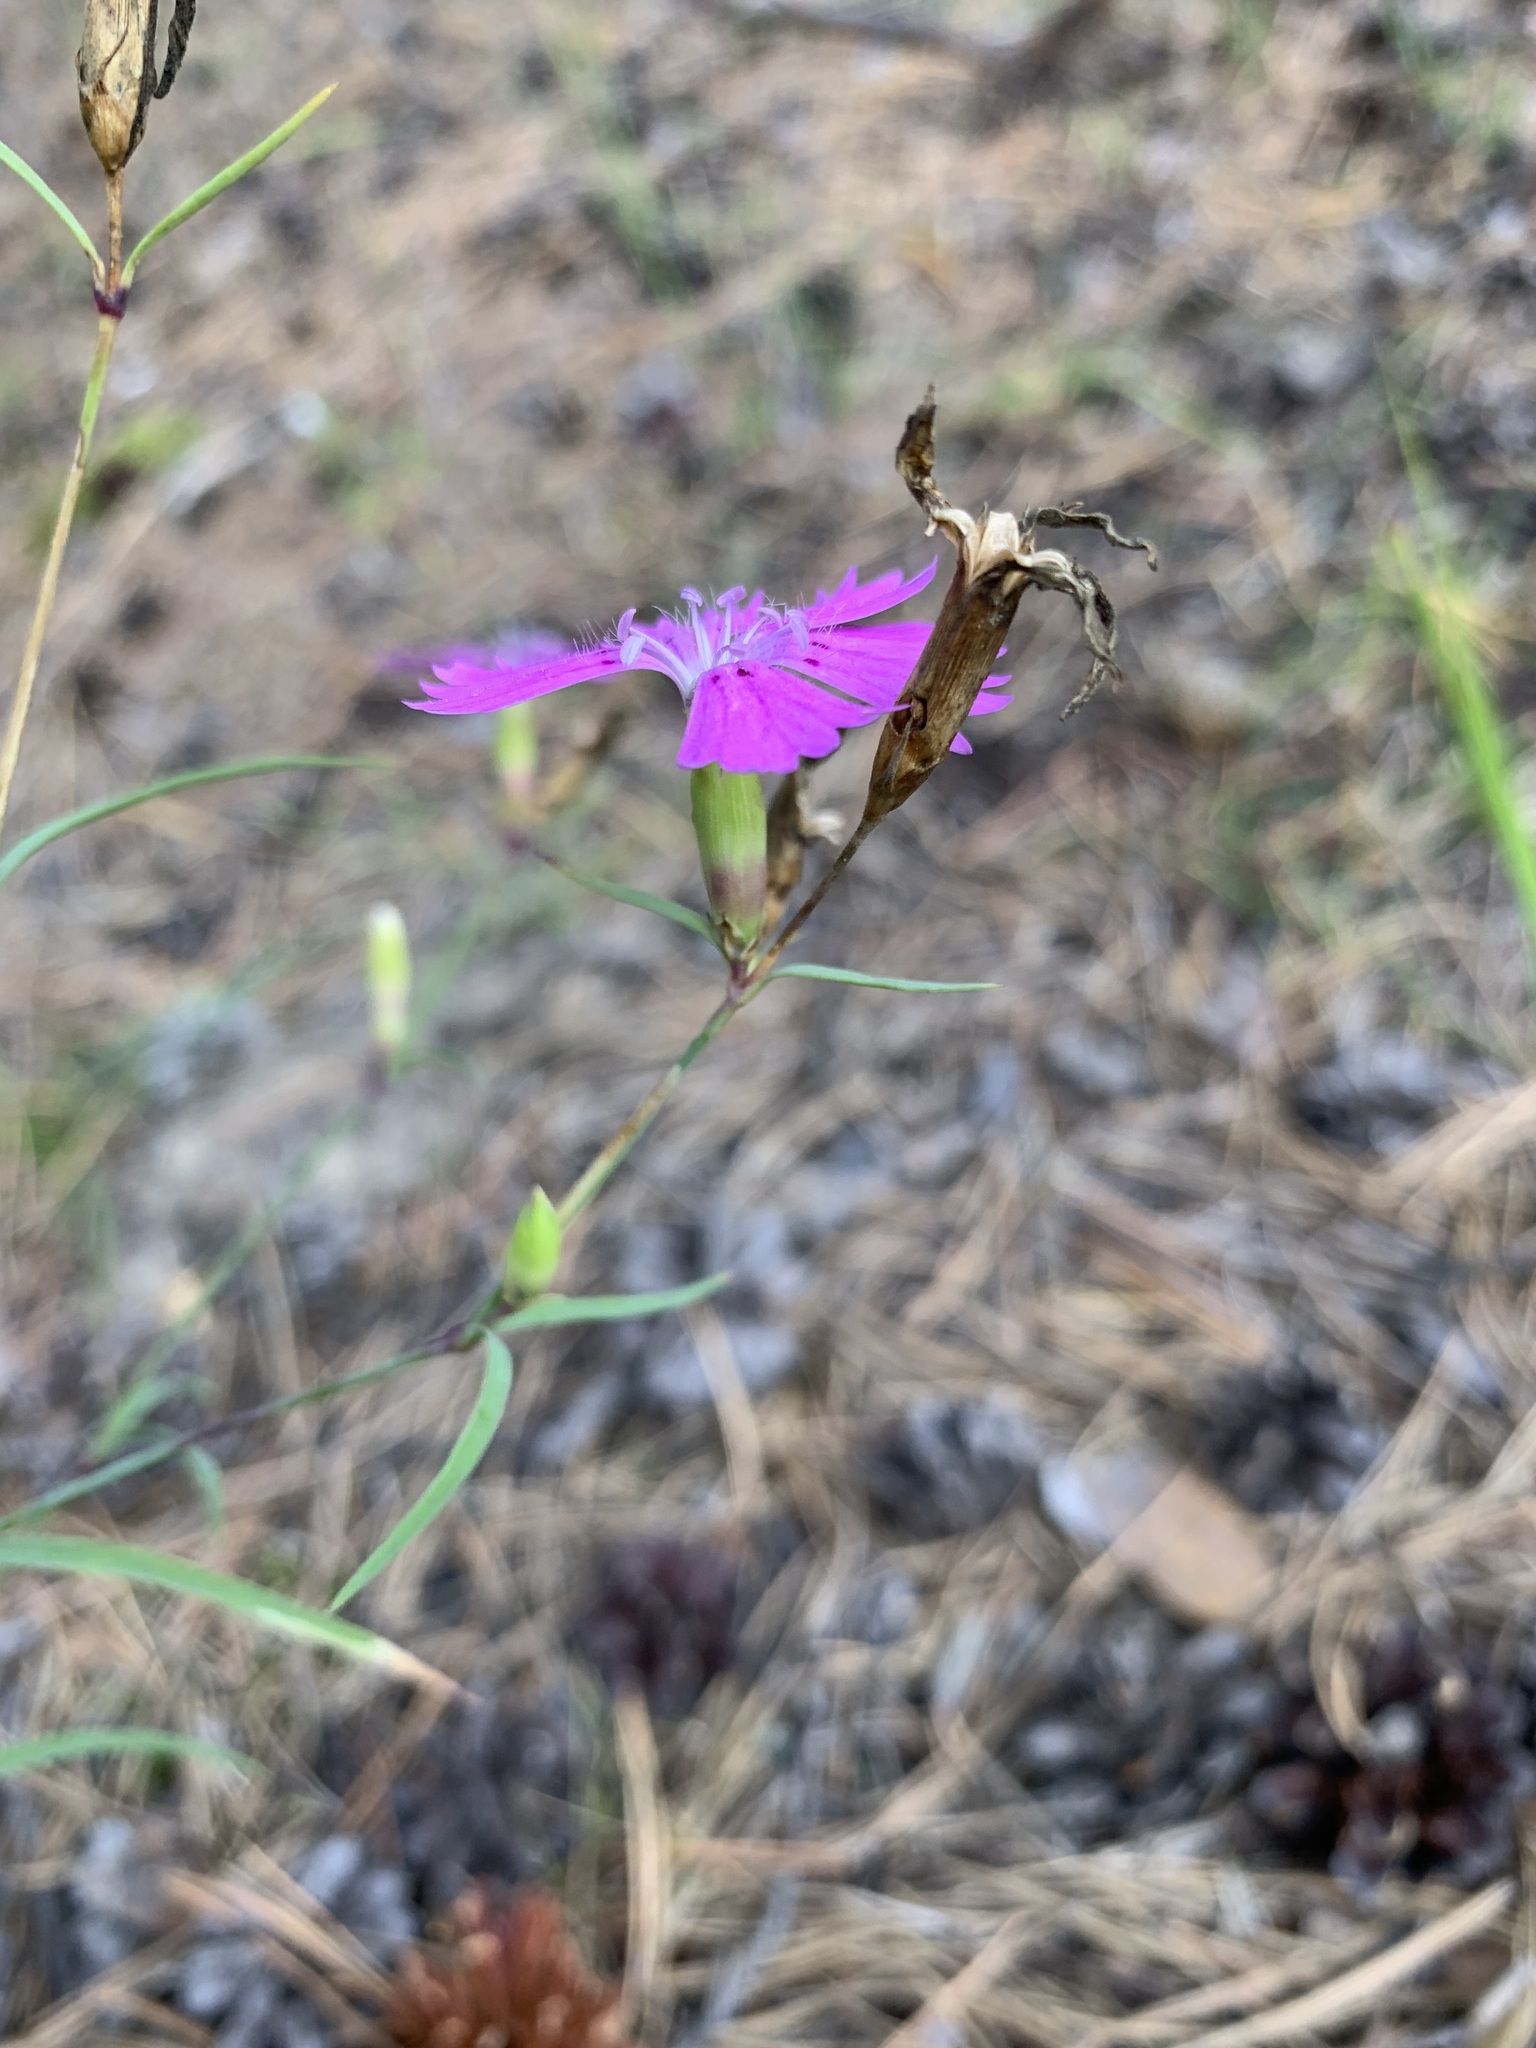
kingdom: Plantae
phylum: Tracheophyta
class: Magnoliopsida
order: Caryophyllales
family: Caryophyllaceae
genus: Dianthus
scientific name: Dianthus chinensis
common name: Rainbow pink
